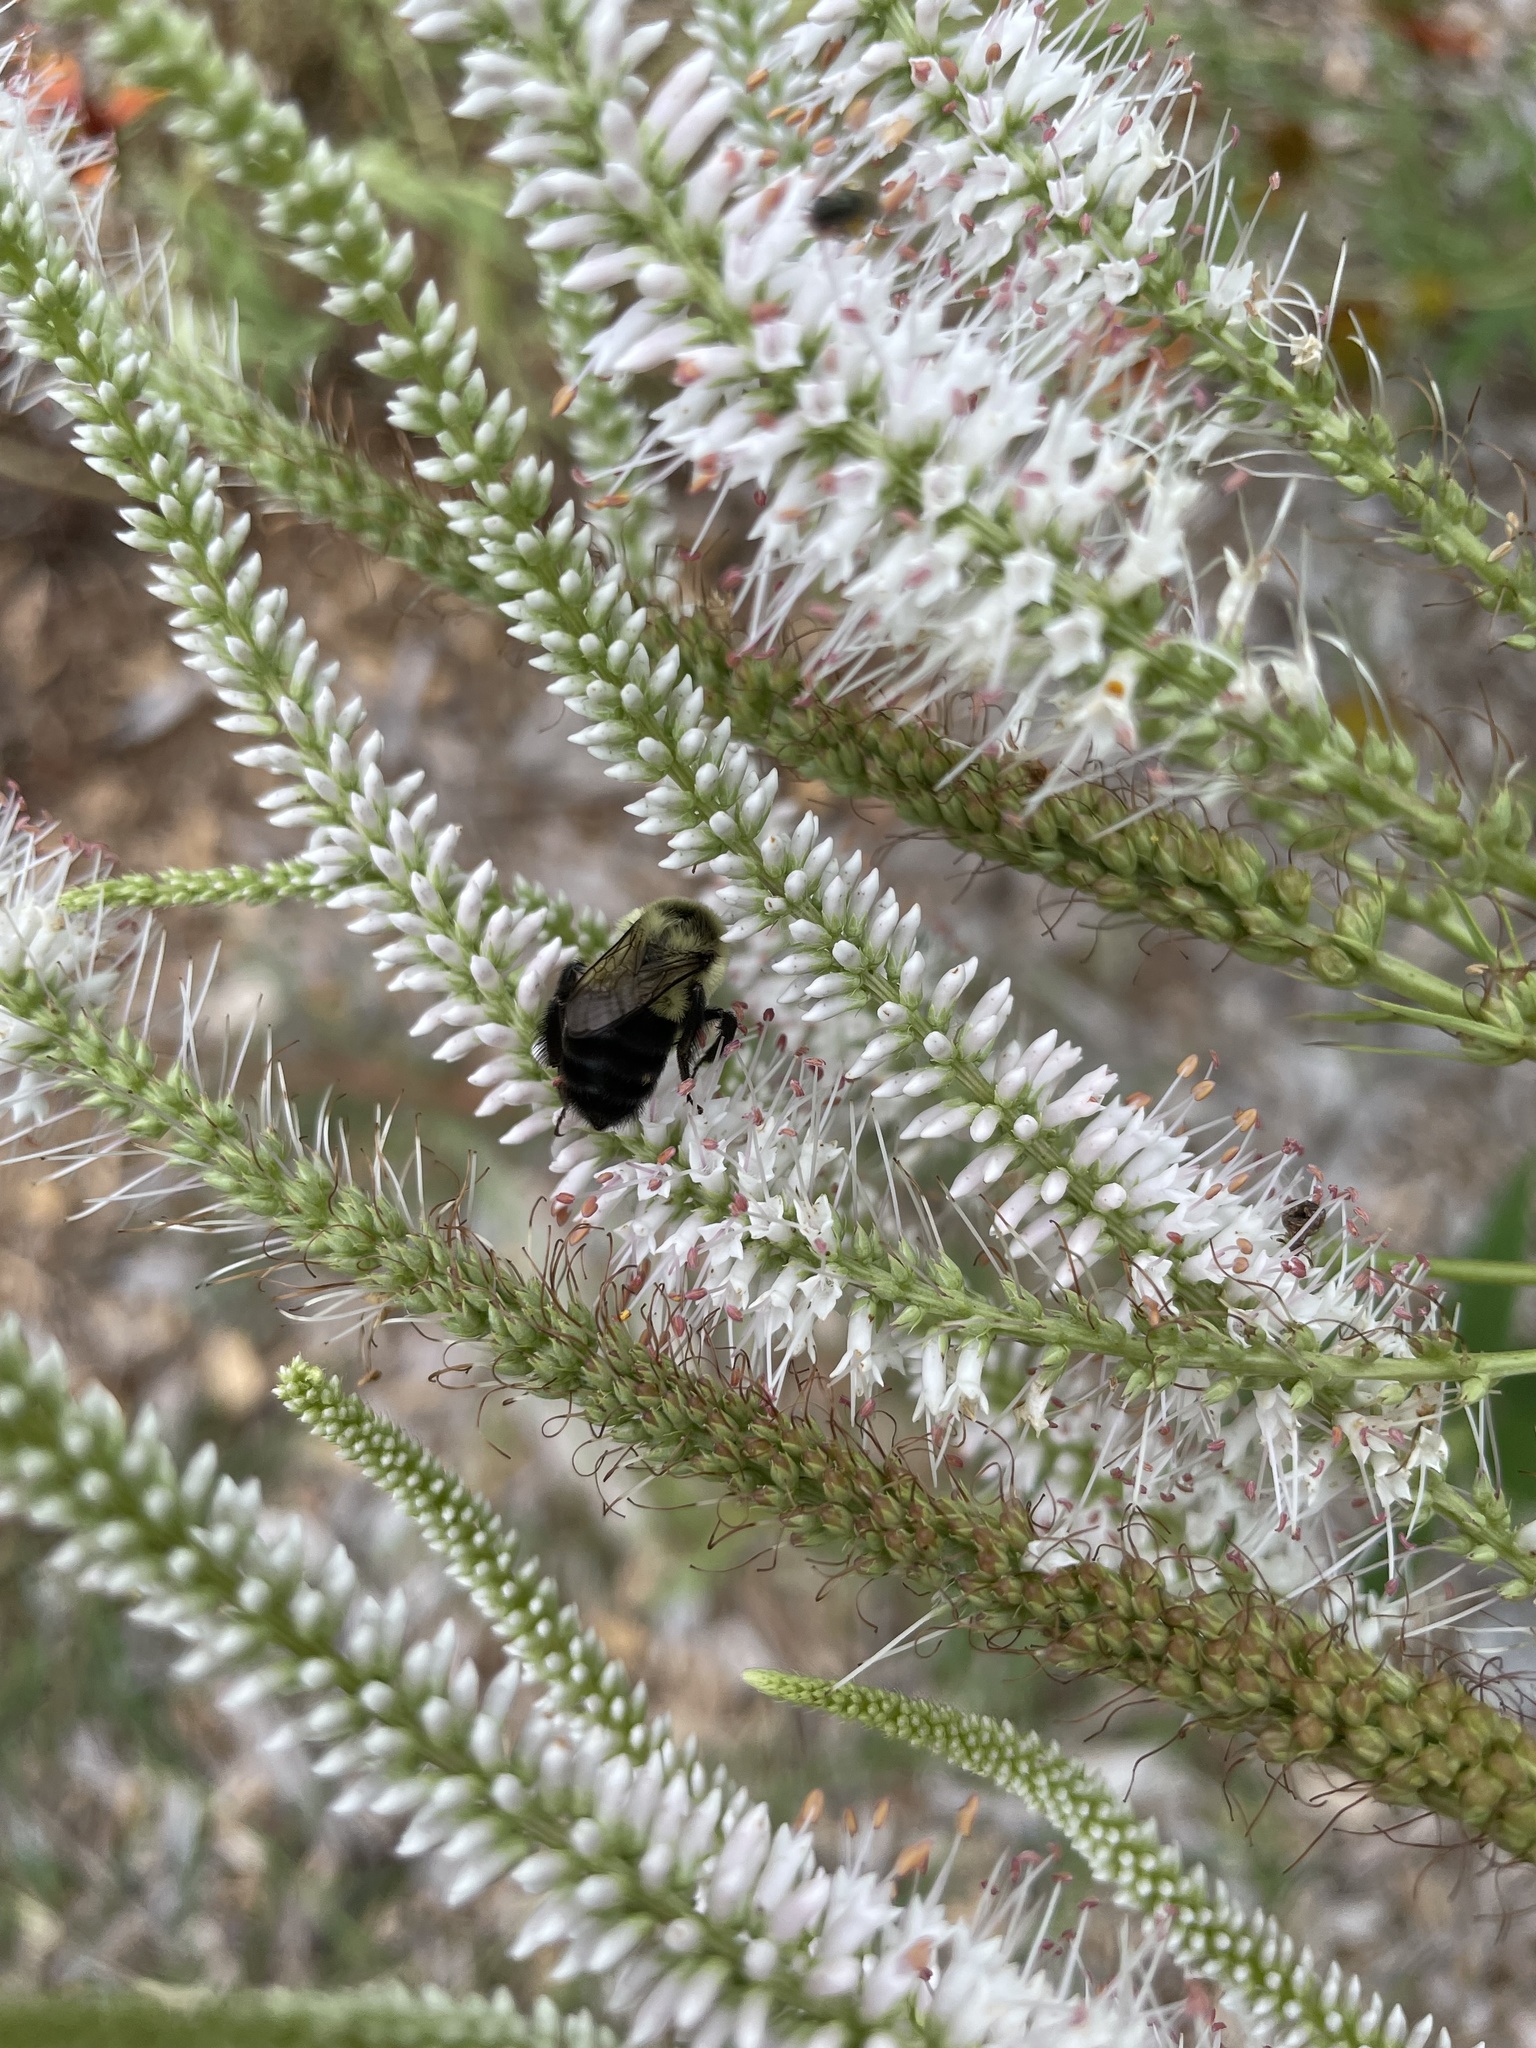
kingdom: Animalia
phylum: Arthropoda
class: Insecta
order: Hymenoptera
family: Apidae
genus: Bombus
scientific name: Bombus impatiens
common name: Common eastern bumble bee
